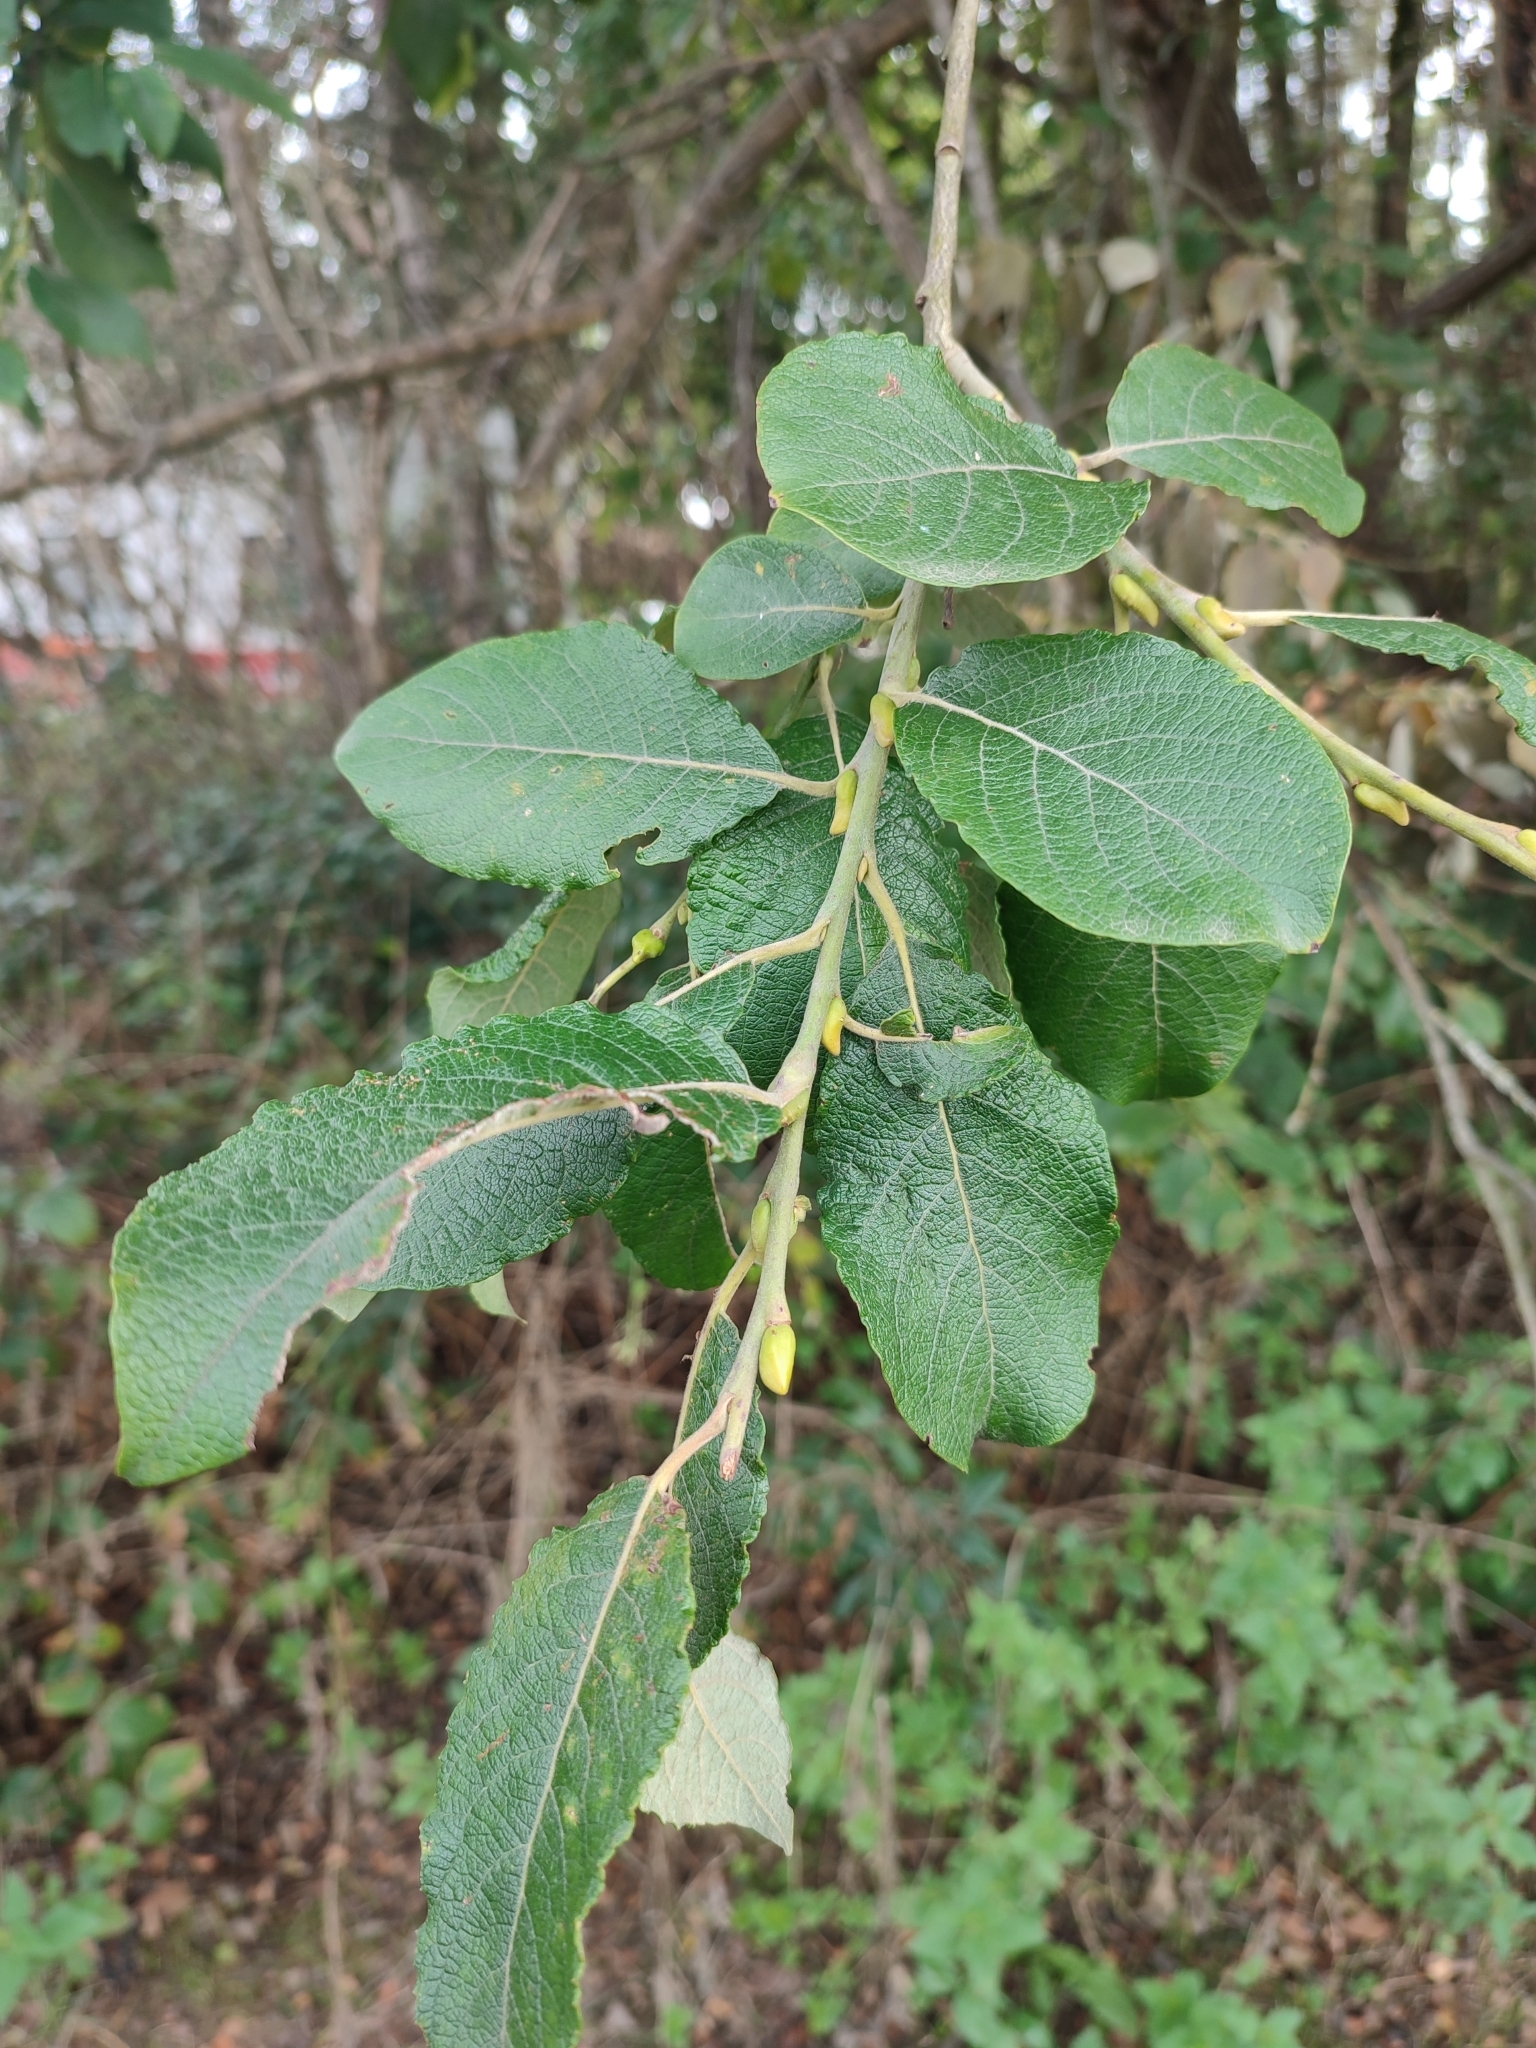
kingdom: Plantae
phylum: Tracheophyta
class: Magnoliopsida
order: Malpighiales
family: Salicaceae
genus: Salix
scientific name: Salix caprea
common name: Goat willow
